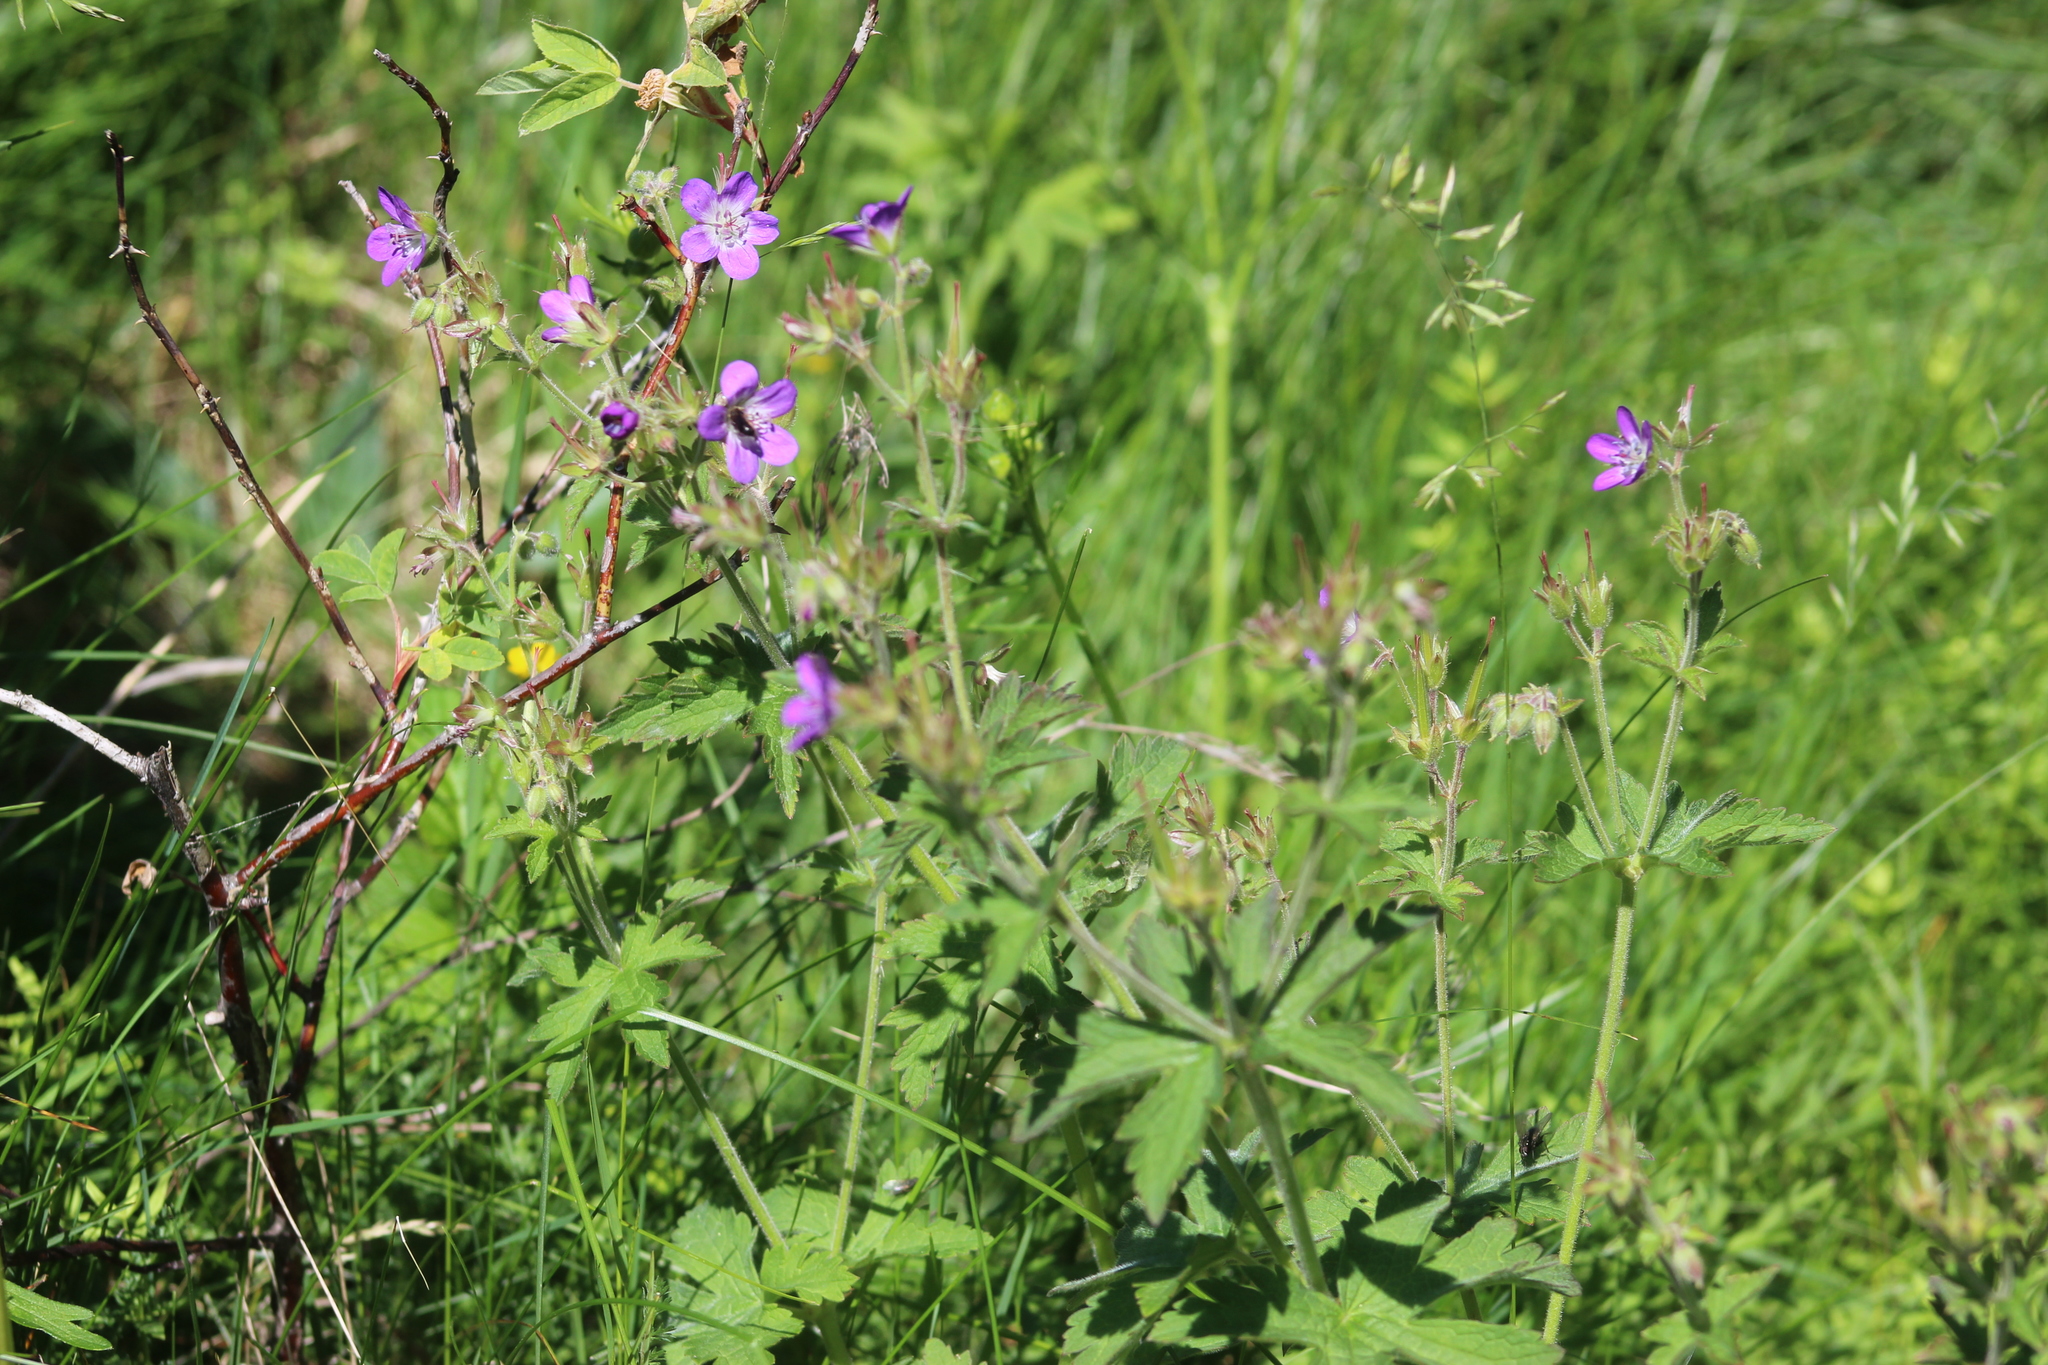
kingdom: Plantae
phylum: Tracheophyta
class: Magnoliopsida
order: Geraniales
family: Geraniaceae
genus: Geranium
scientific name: Geranium sylvaticum
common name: Wood crane's-bill
